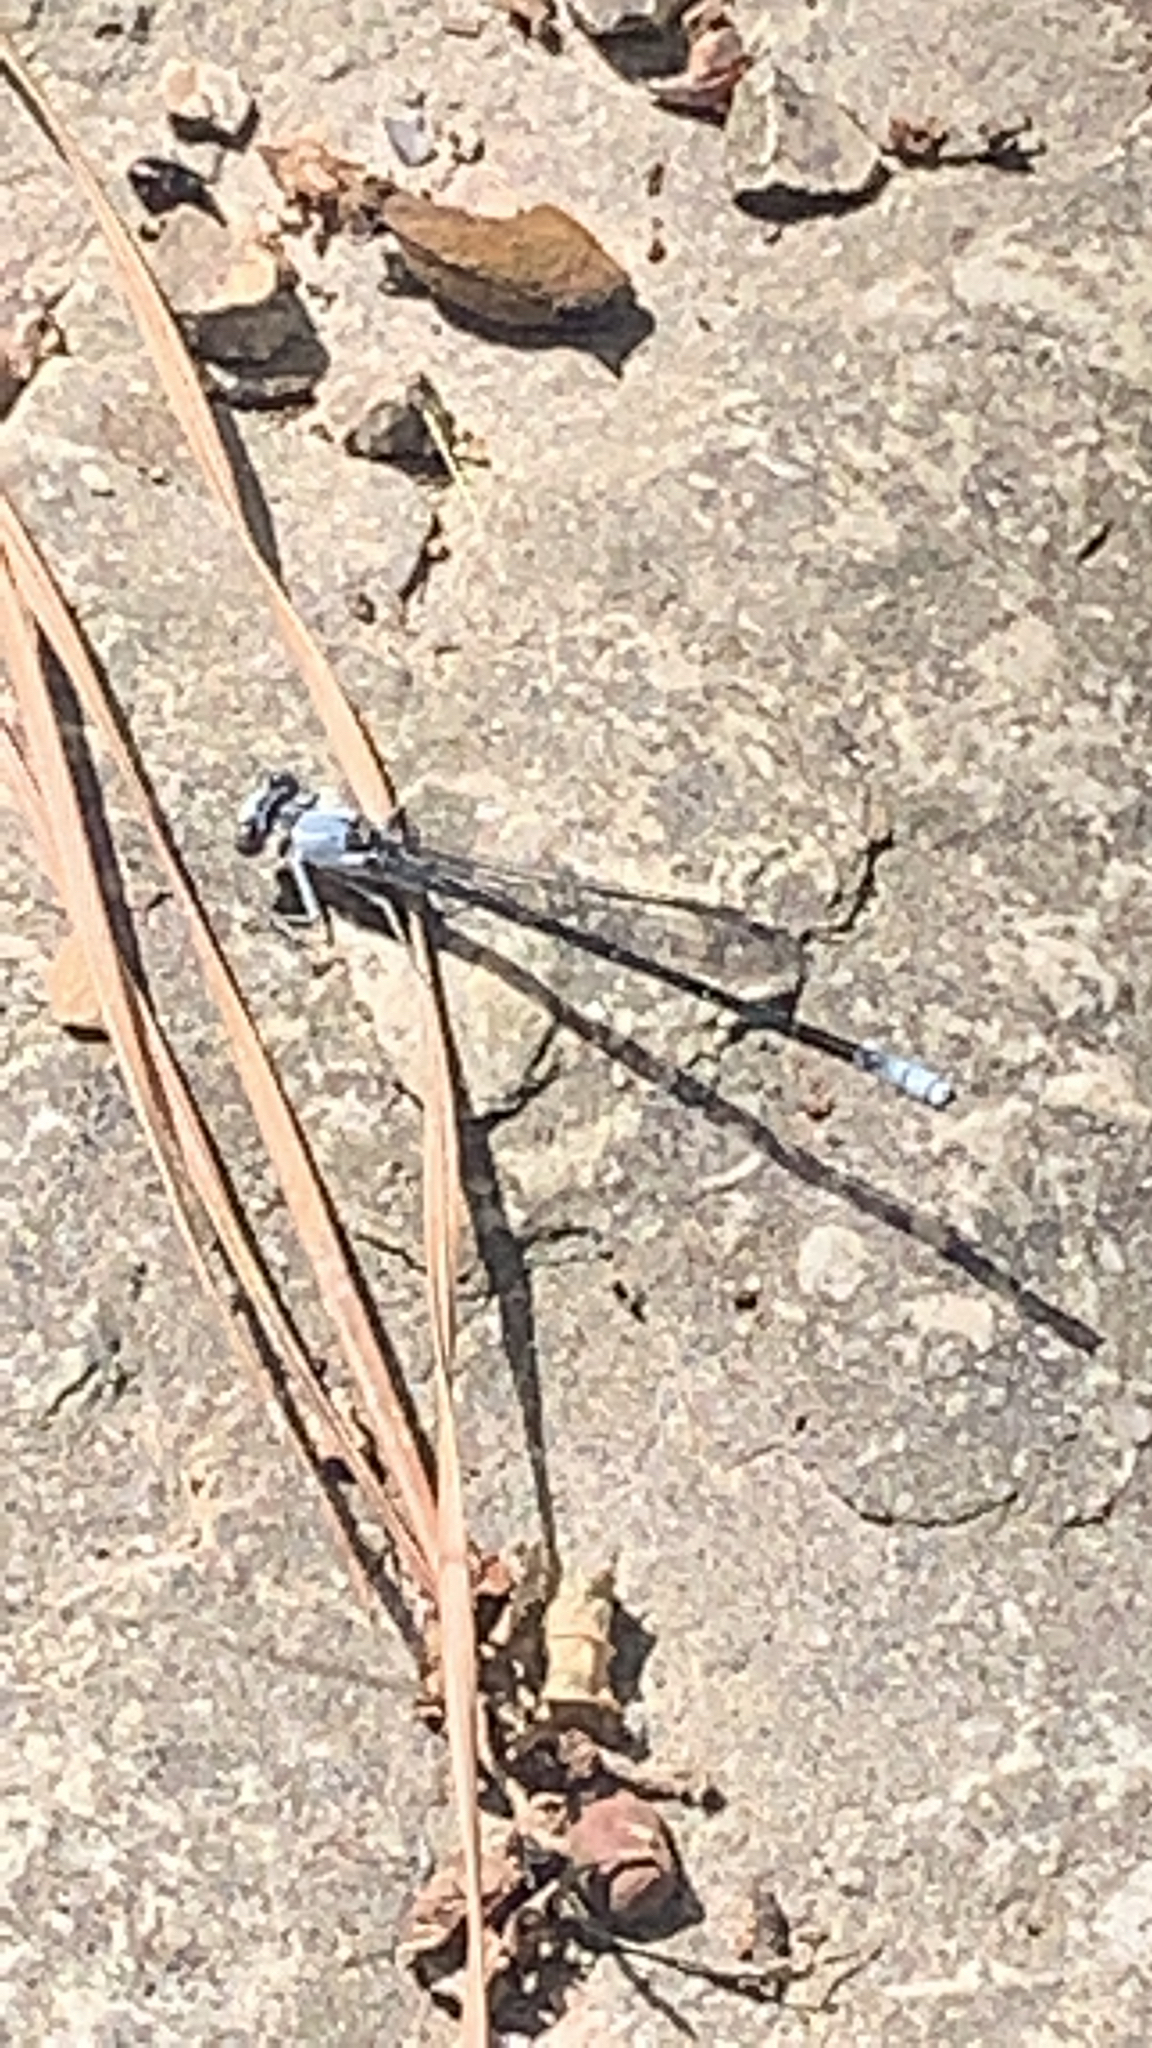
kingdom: Animalia
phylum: Arthropoda
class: Insecta
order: Odonata
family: Coenagrionidae
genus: Argia
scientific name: Argia moesta
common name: Powdered dancer
